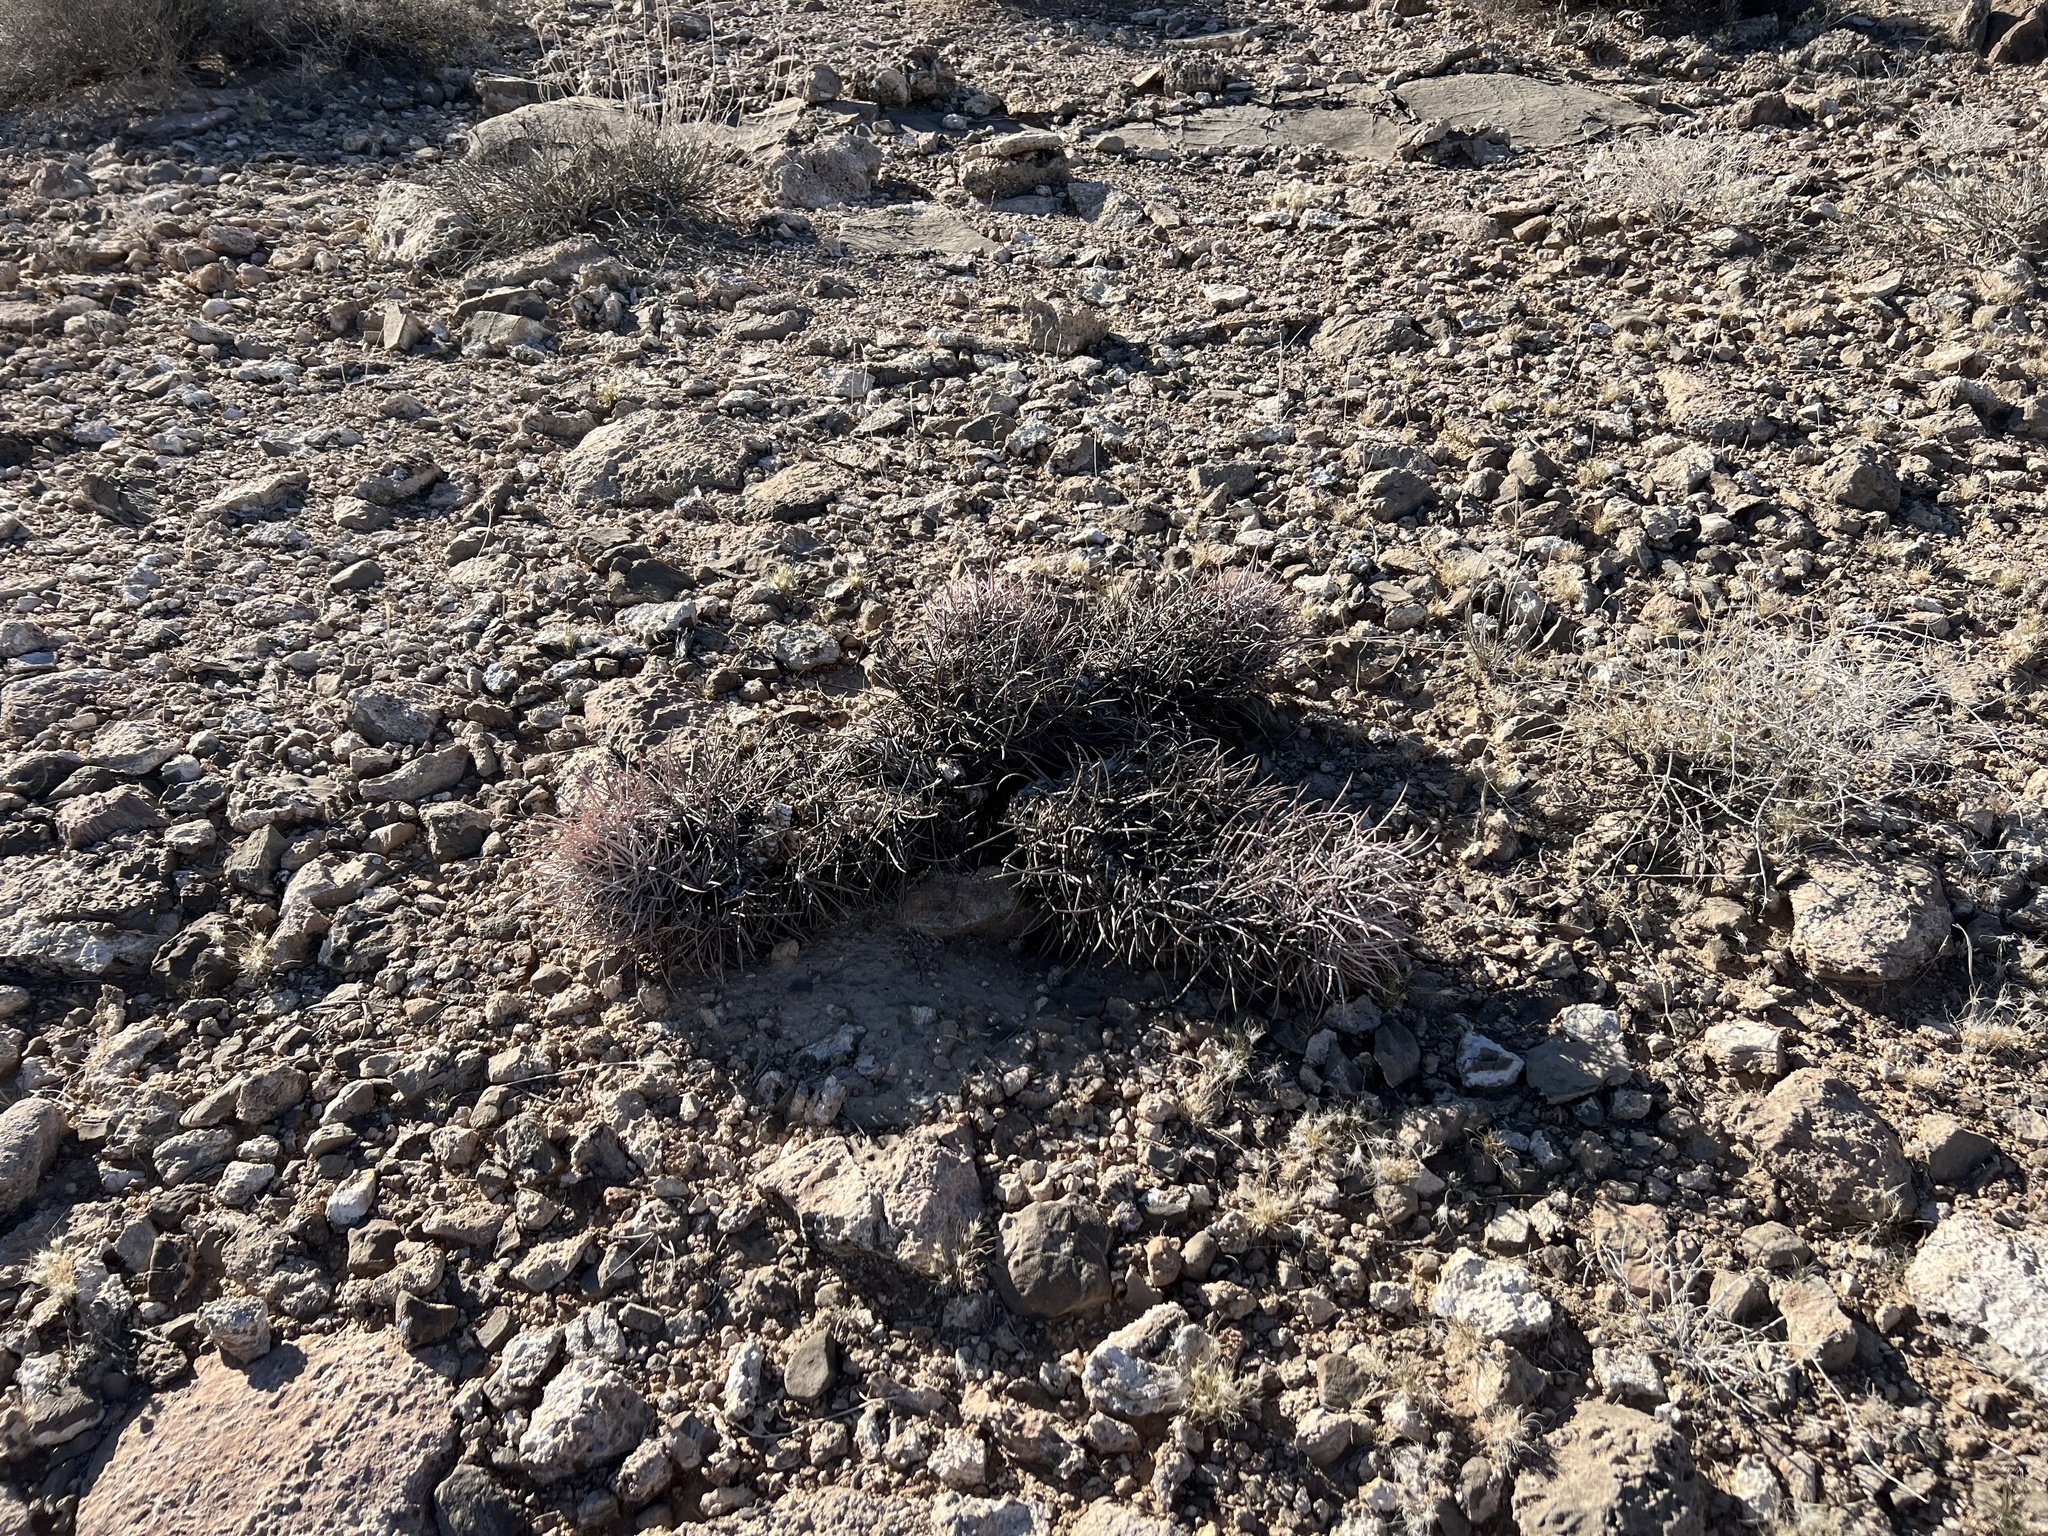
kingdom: Plantae
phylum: Tracheophyta
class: Magnoliopsida
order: Caryophyllales
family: Cactaceae
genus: Echinocactus
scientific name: Echinocactus polycephalus
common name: Cottontop cactus
